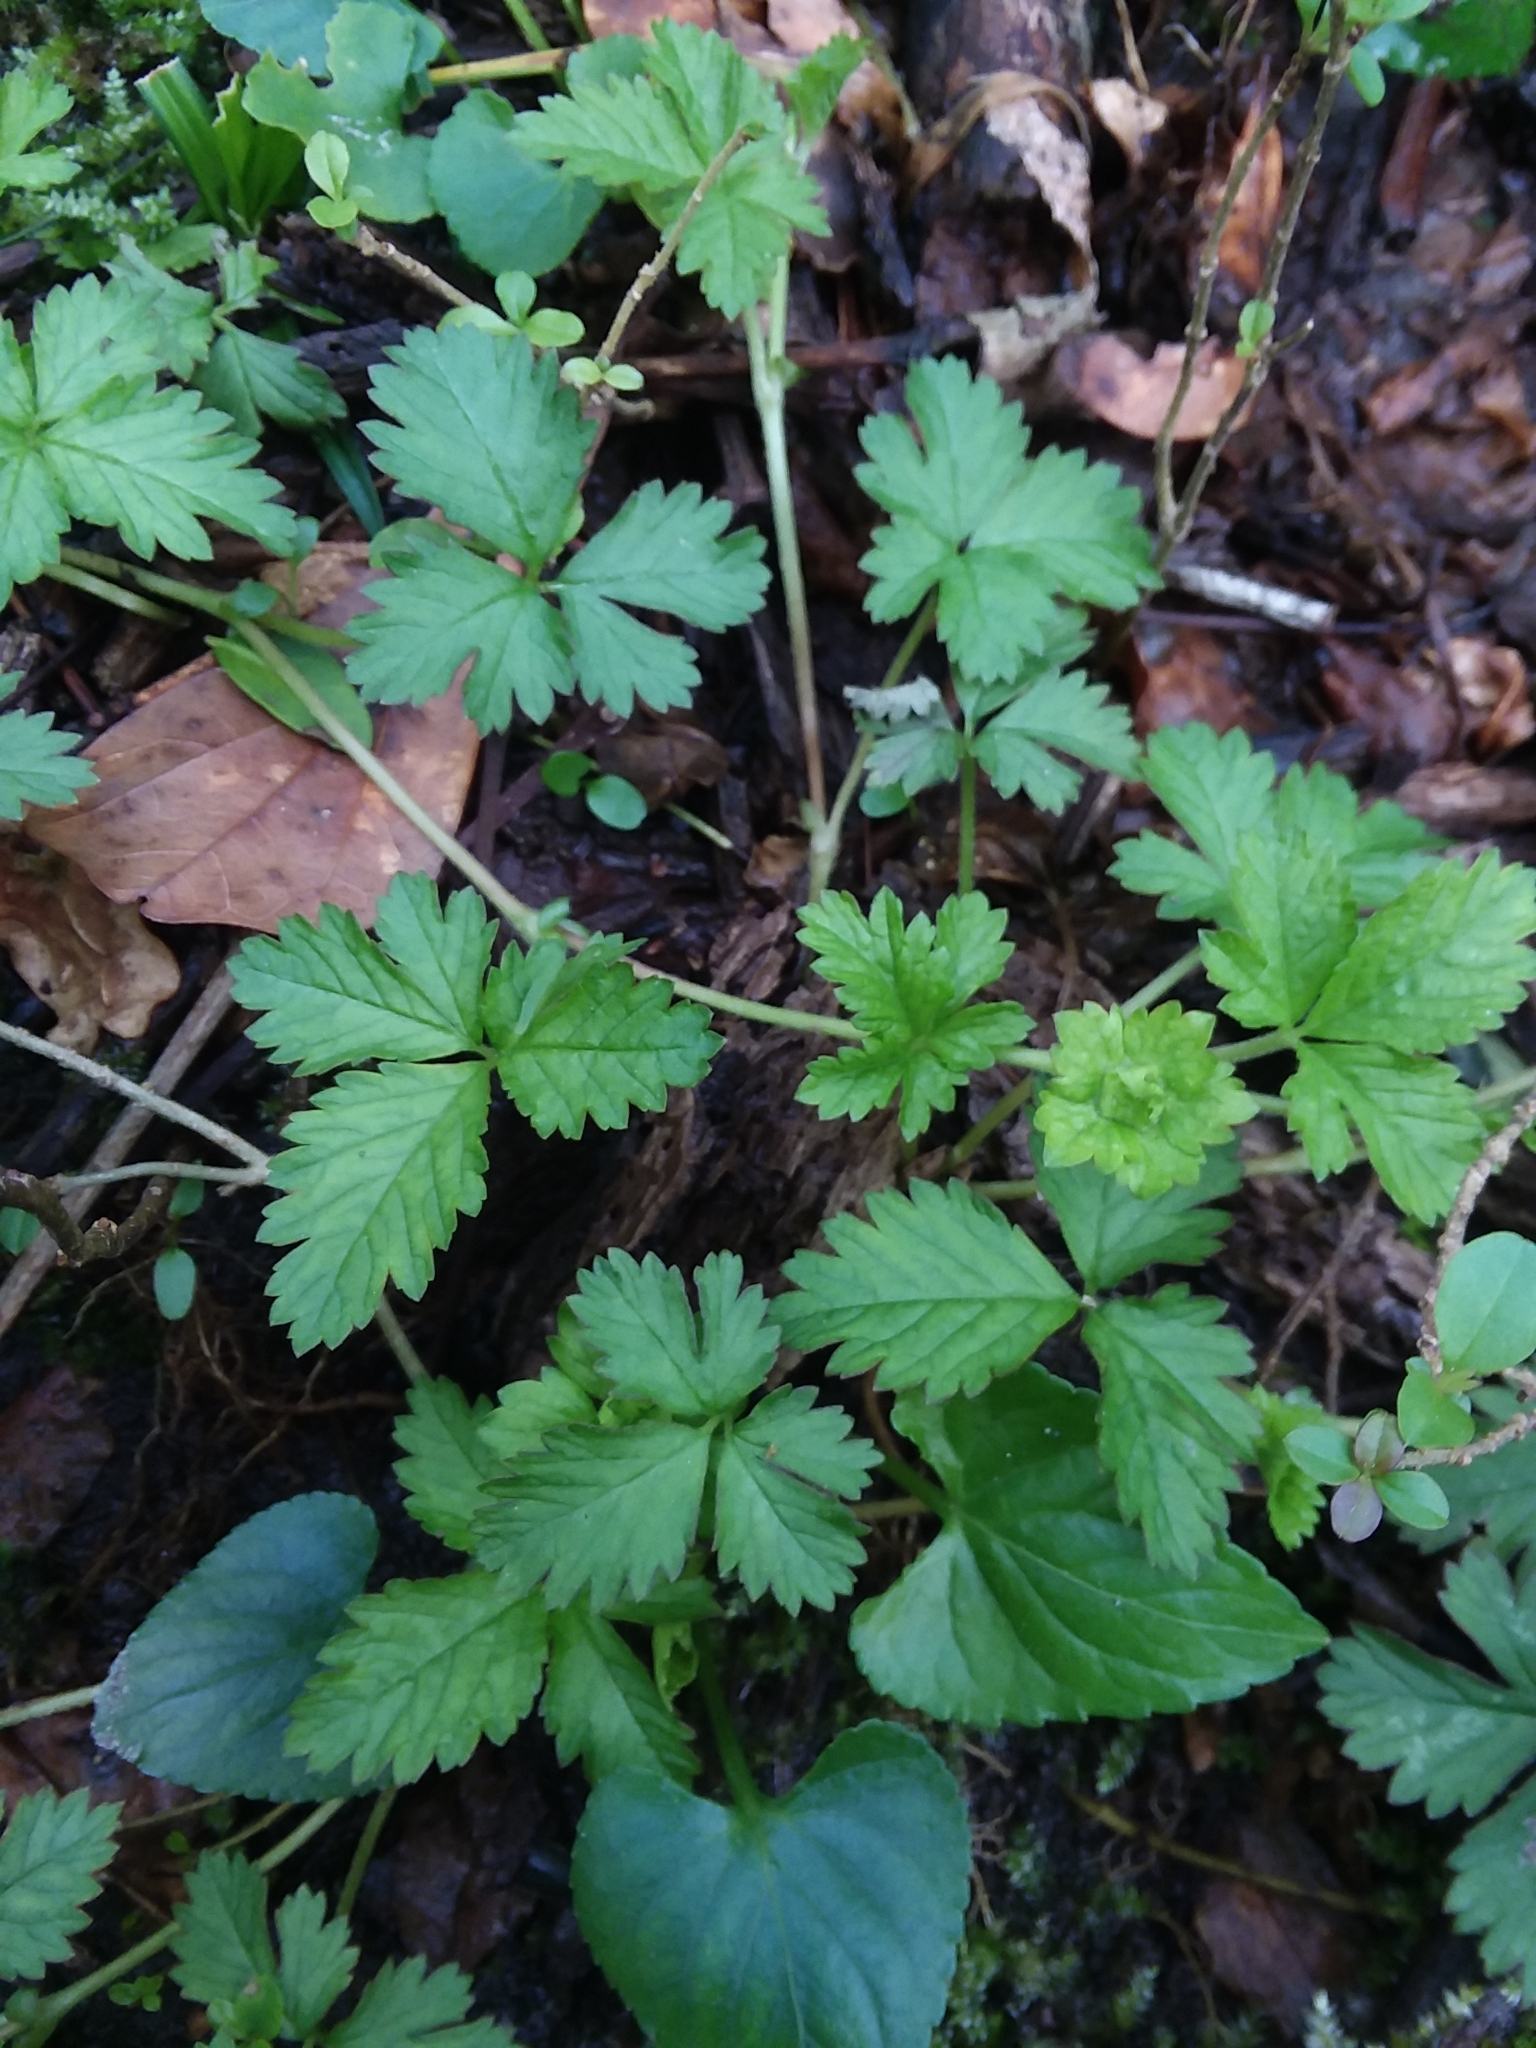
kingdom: Plantae
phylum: Tracheophyta
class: Magnoliopsida
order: Rosales
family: Rosaceae
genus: Potentilla
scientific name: Potentilla indica
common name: Yellow-flowered strawberry
